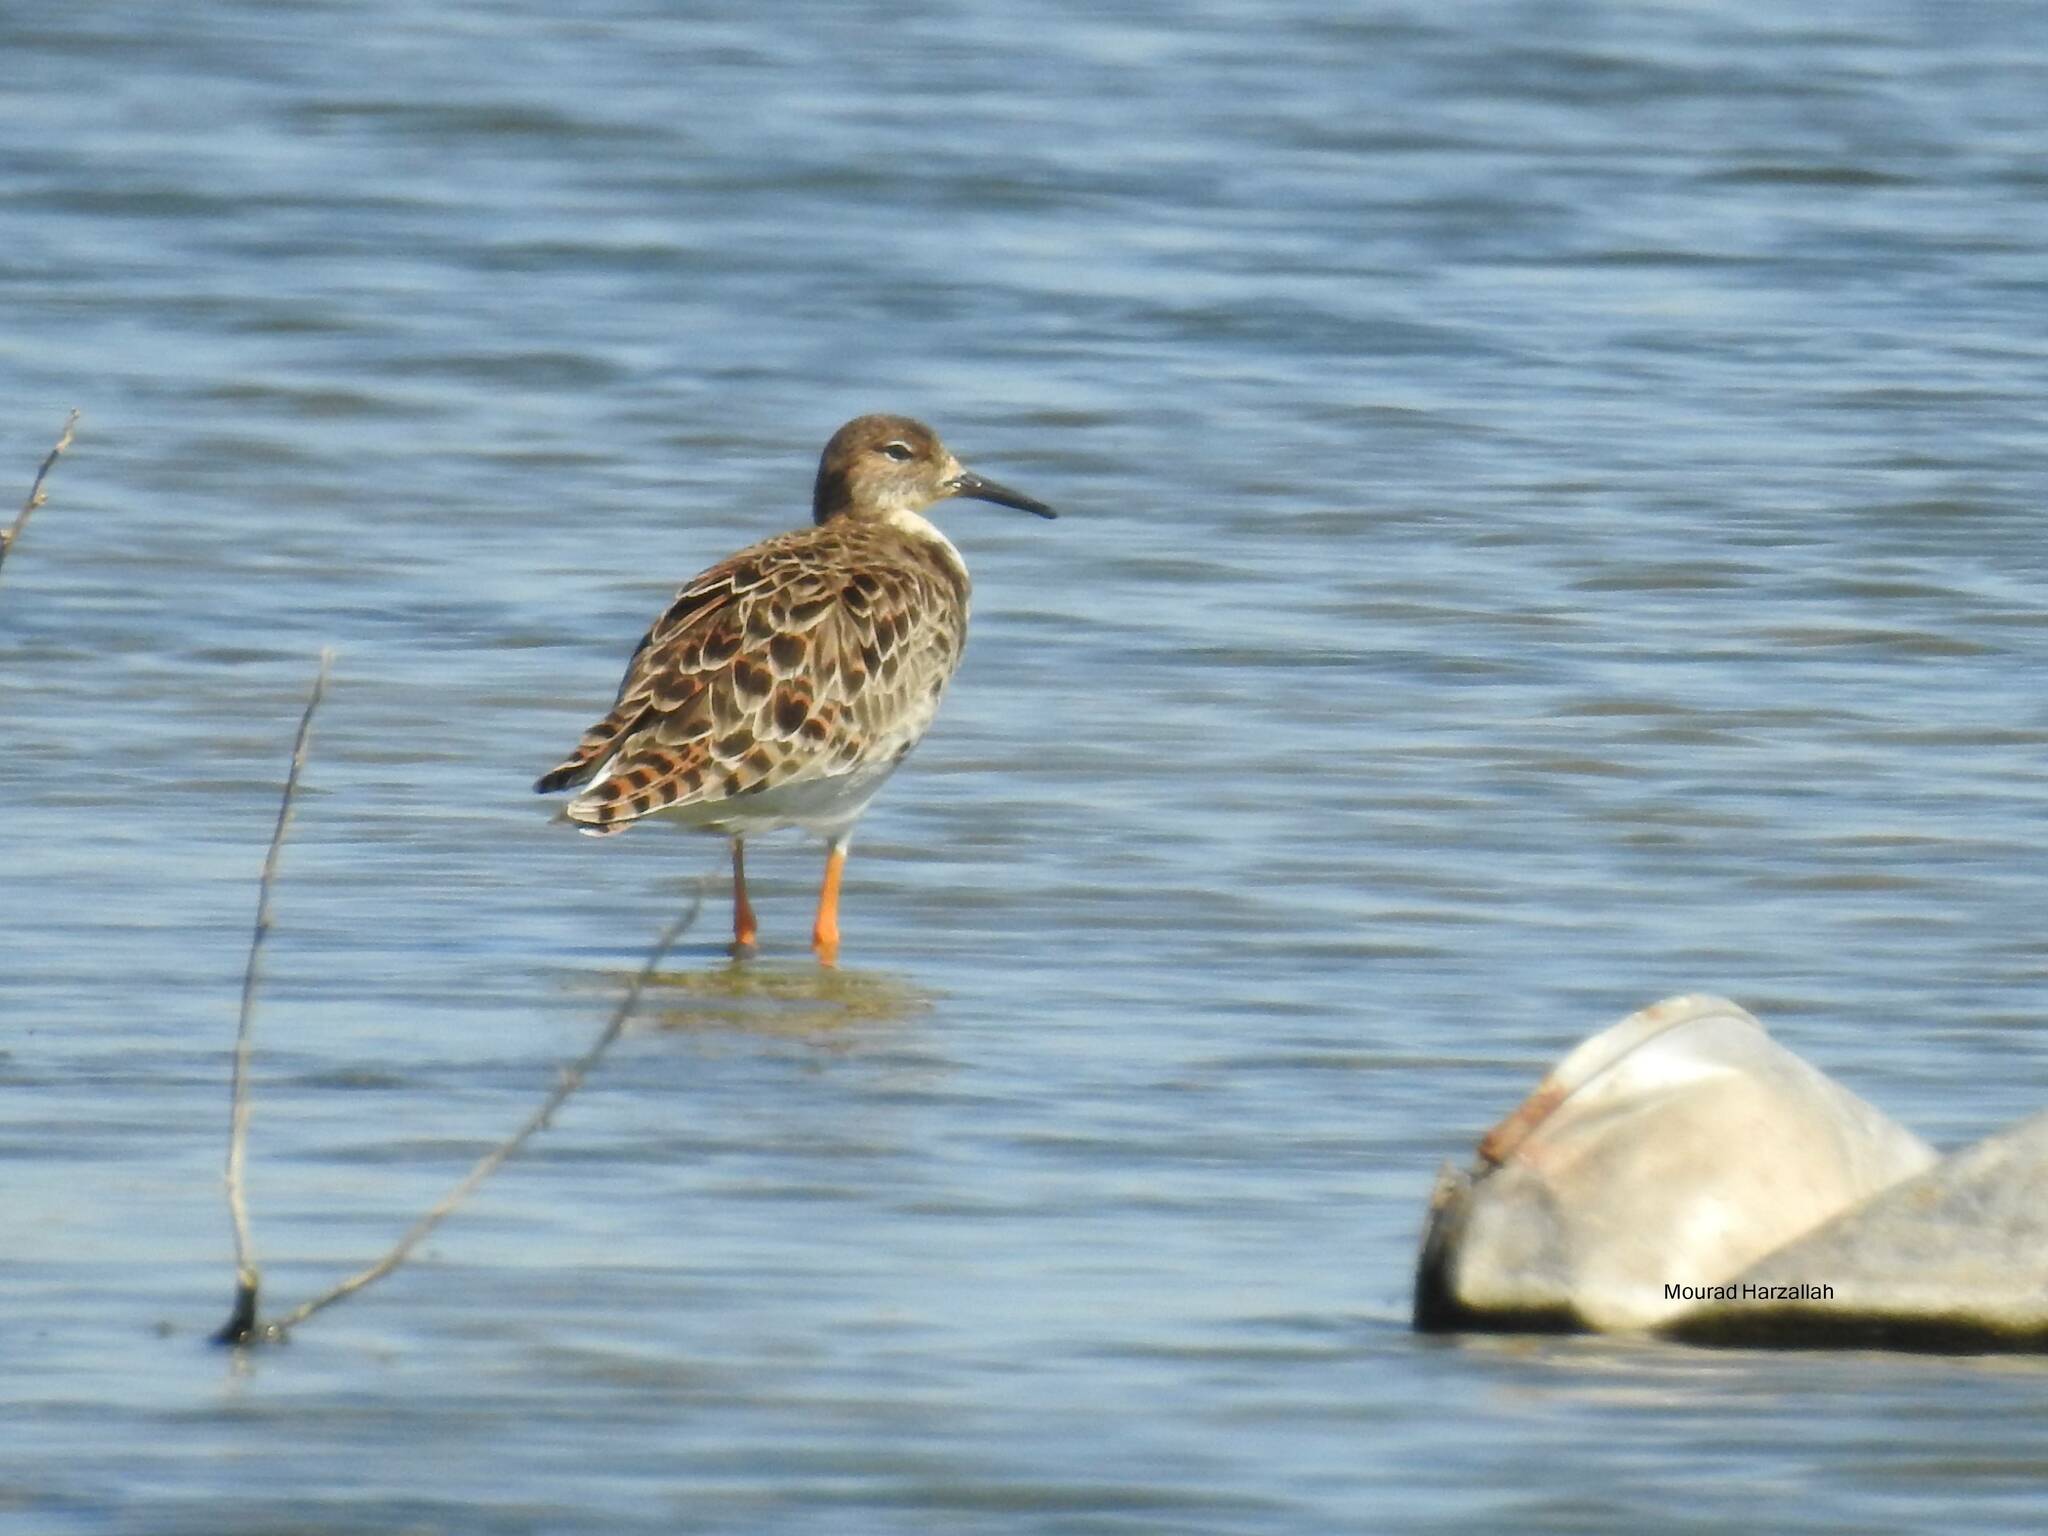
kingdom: Animalia
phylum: Chordata
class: Aves
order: Charadriiformes
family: Scolopacidae
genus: Calidris
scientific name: Calidris pugnax
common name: Ruff
